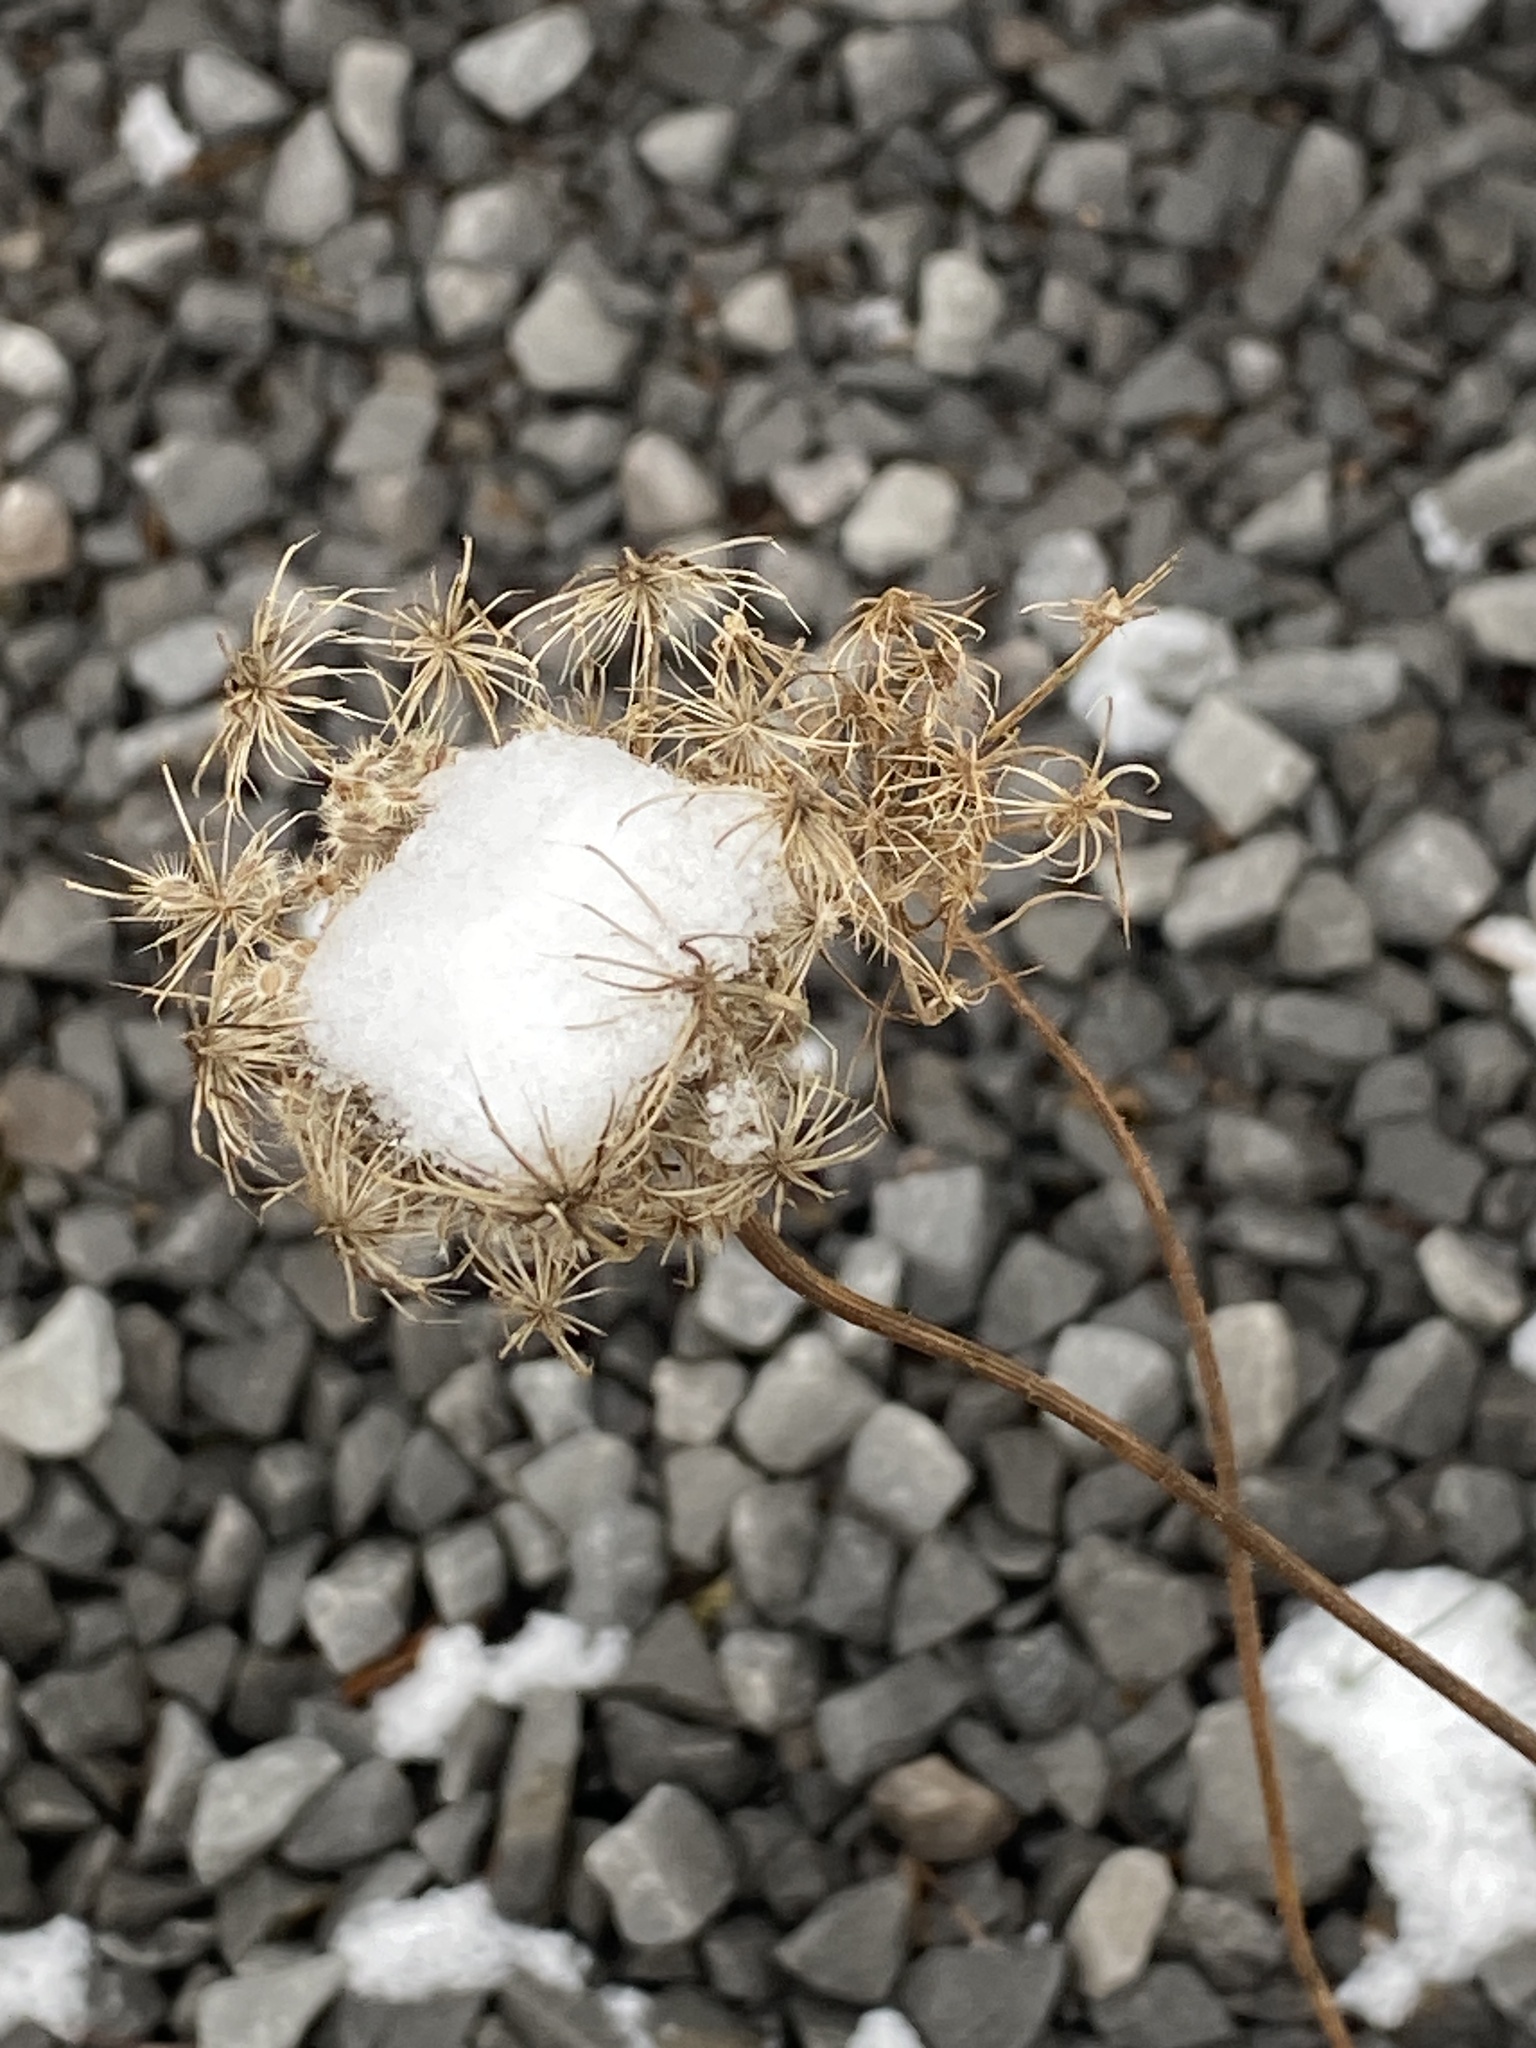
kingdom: Plantae
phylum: Tracheophyta
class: Magnoliopsida
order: Apiales
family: Apiaceae
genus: Daucus
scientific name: Daucus carota
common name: Wild carrot
